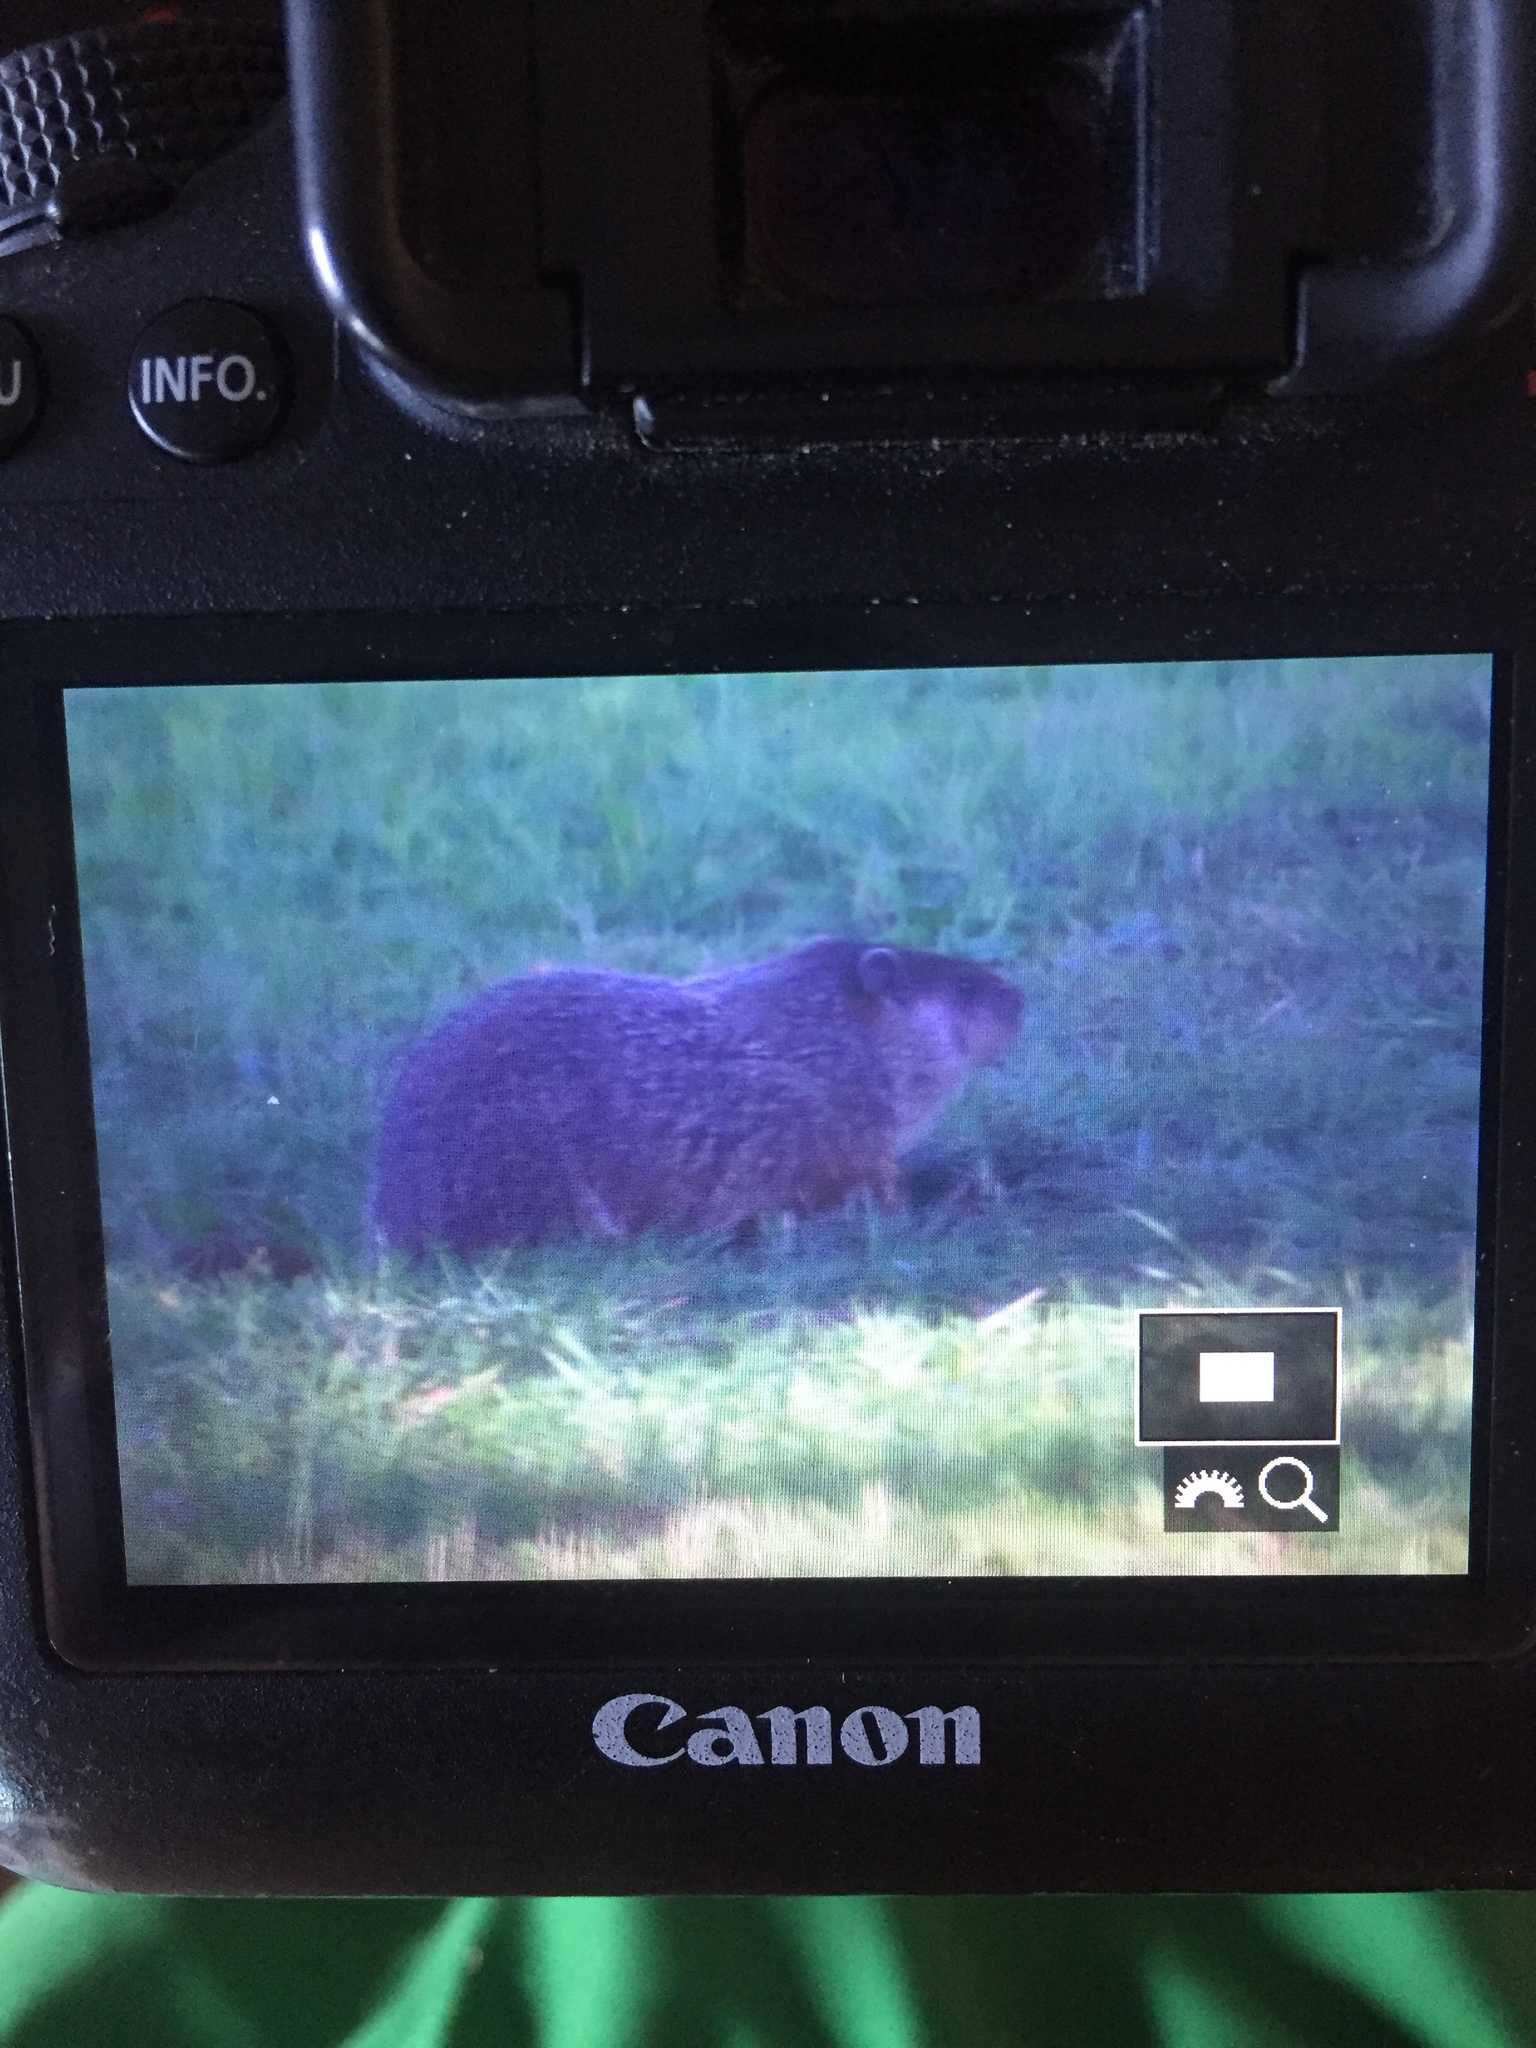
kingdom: Animalia
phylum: Chordata
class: Mammalia
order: Rodentia
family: Sciuridae
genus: Marmota
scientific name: Marmota monax
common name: Groundhog
